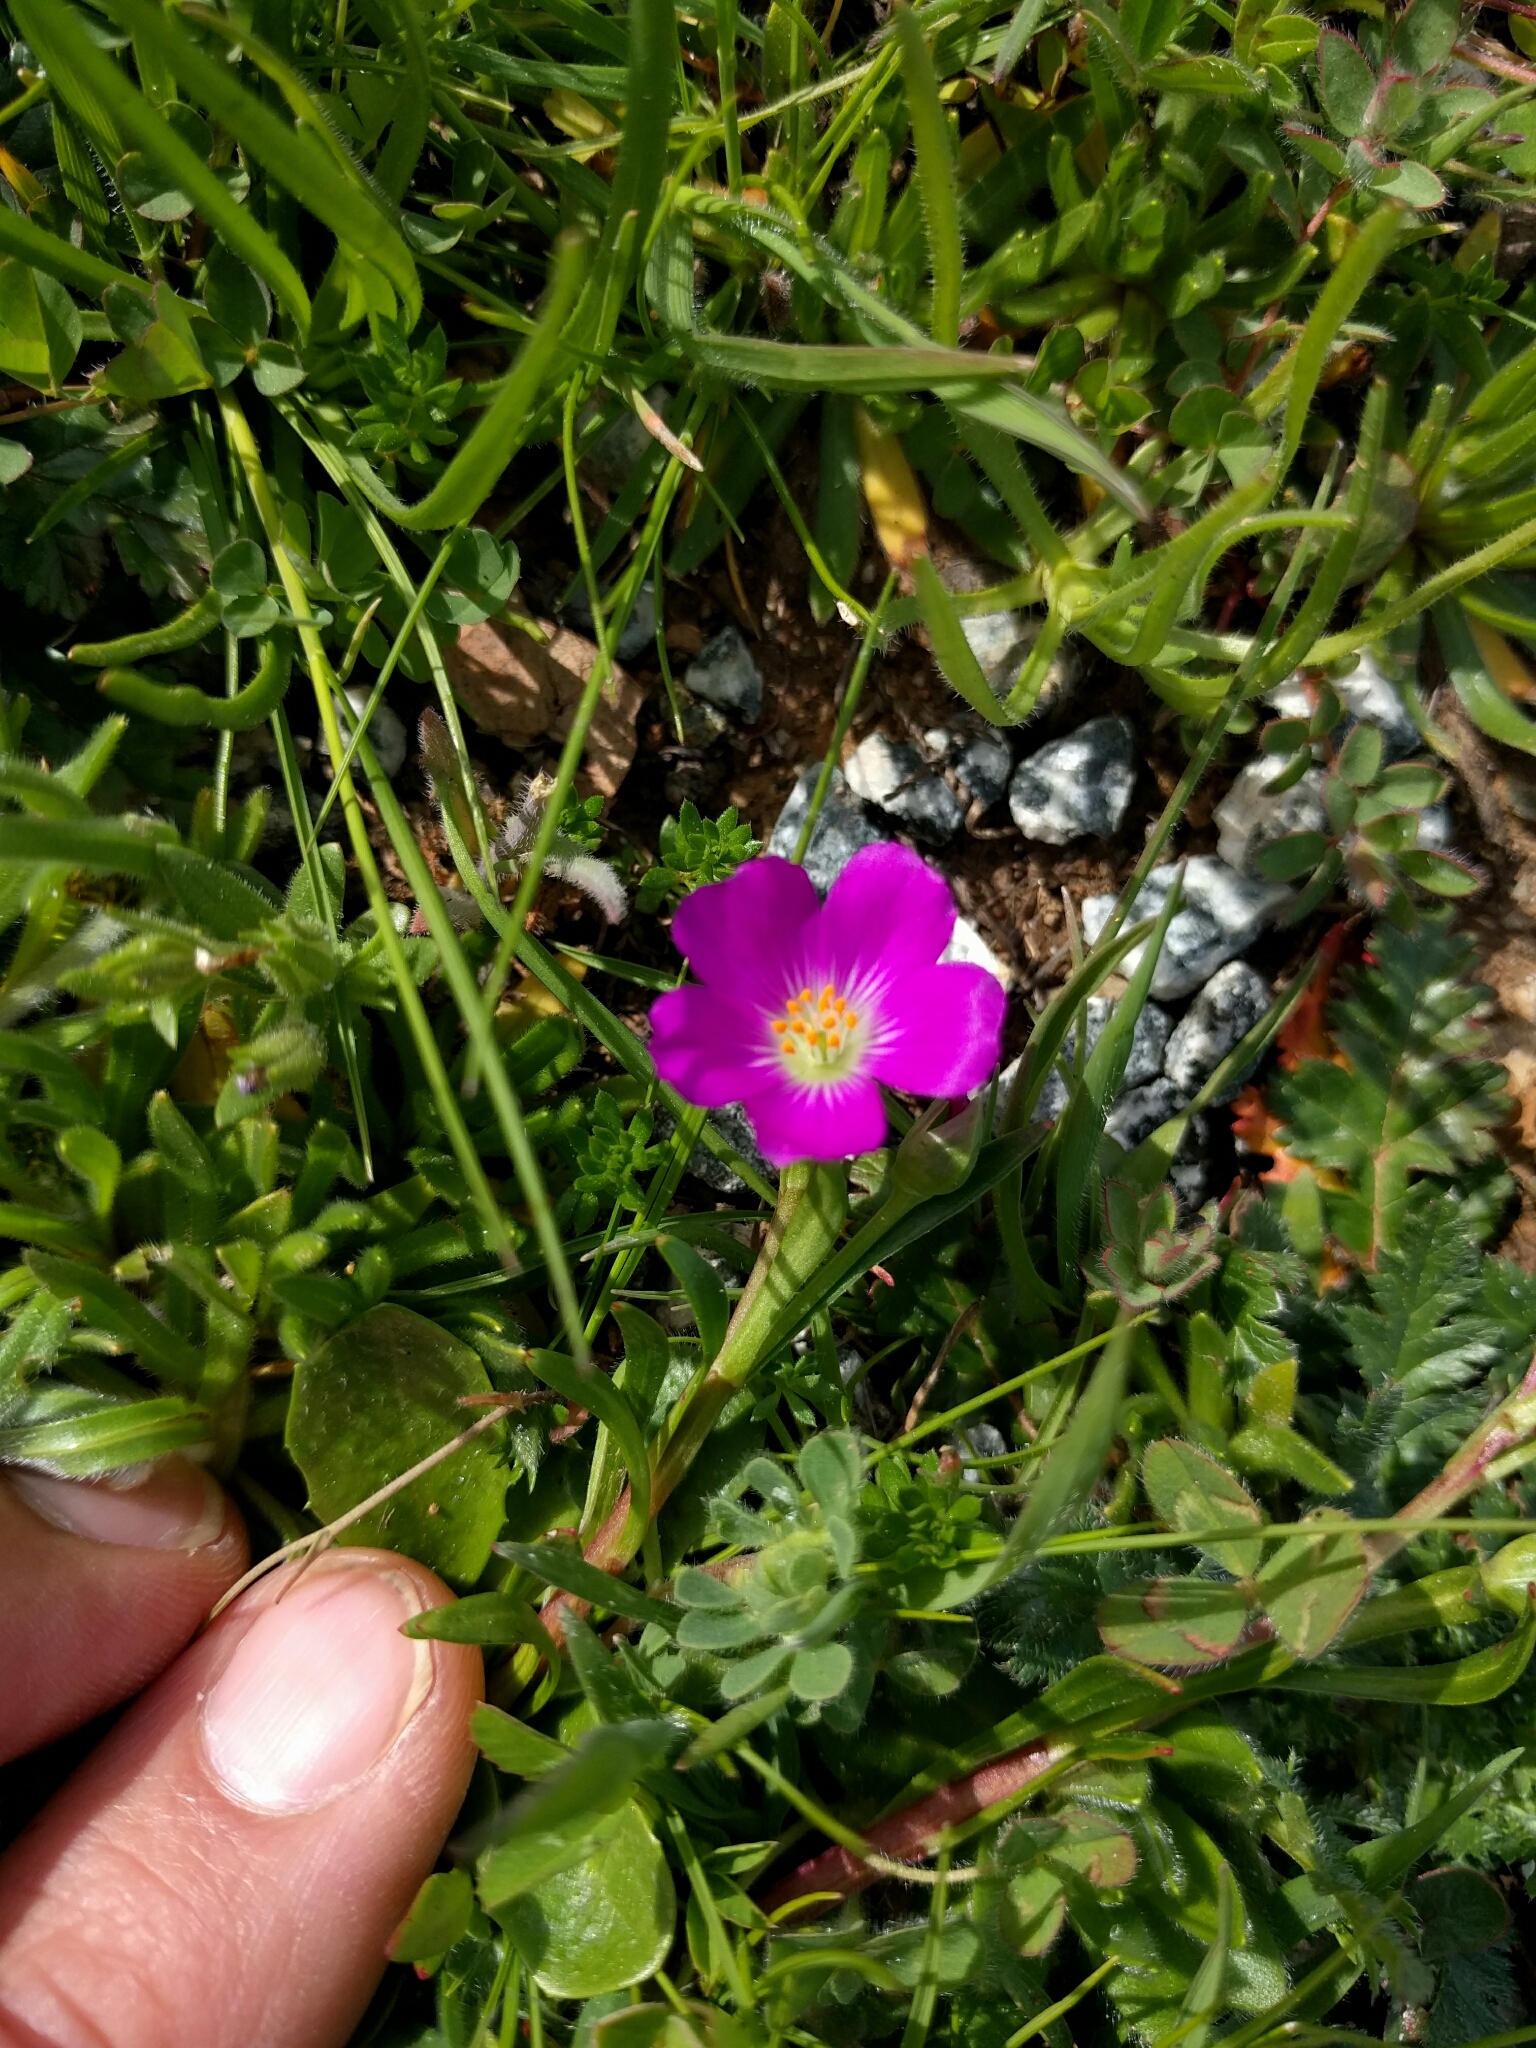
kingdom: Plantae
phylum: Tracheophyta
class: Magnoliopsida
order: Caryophyllales
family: Montiaceae
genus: Calandrinia
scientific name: Calandrinia menziesii
